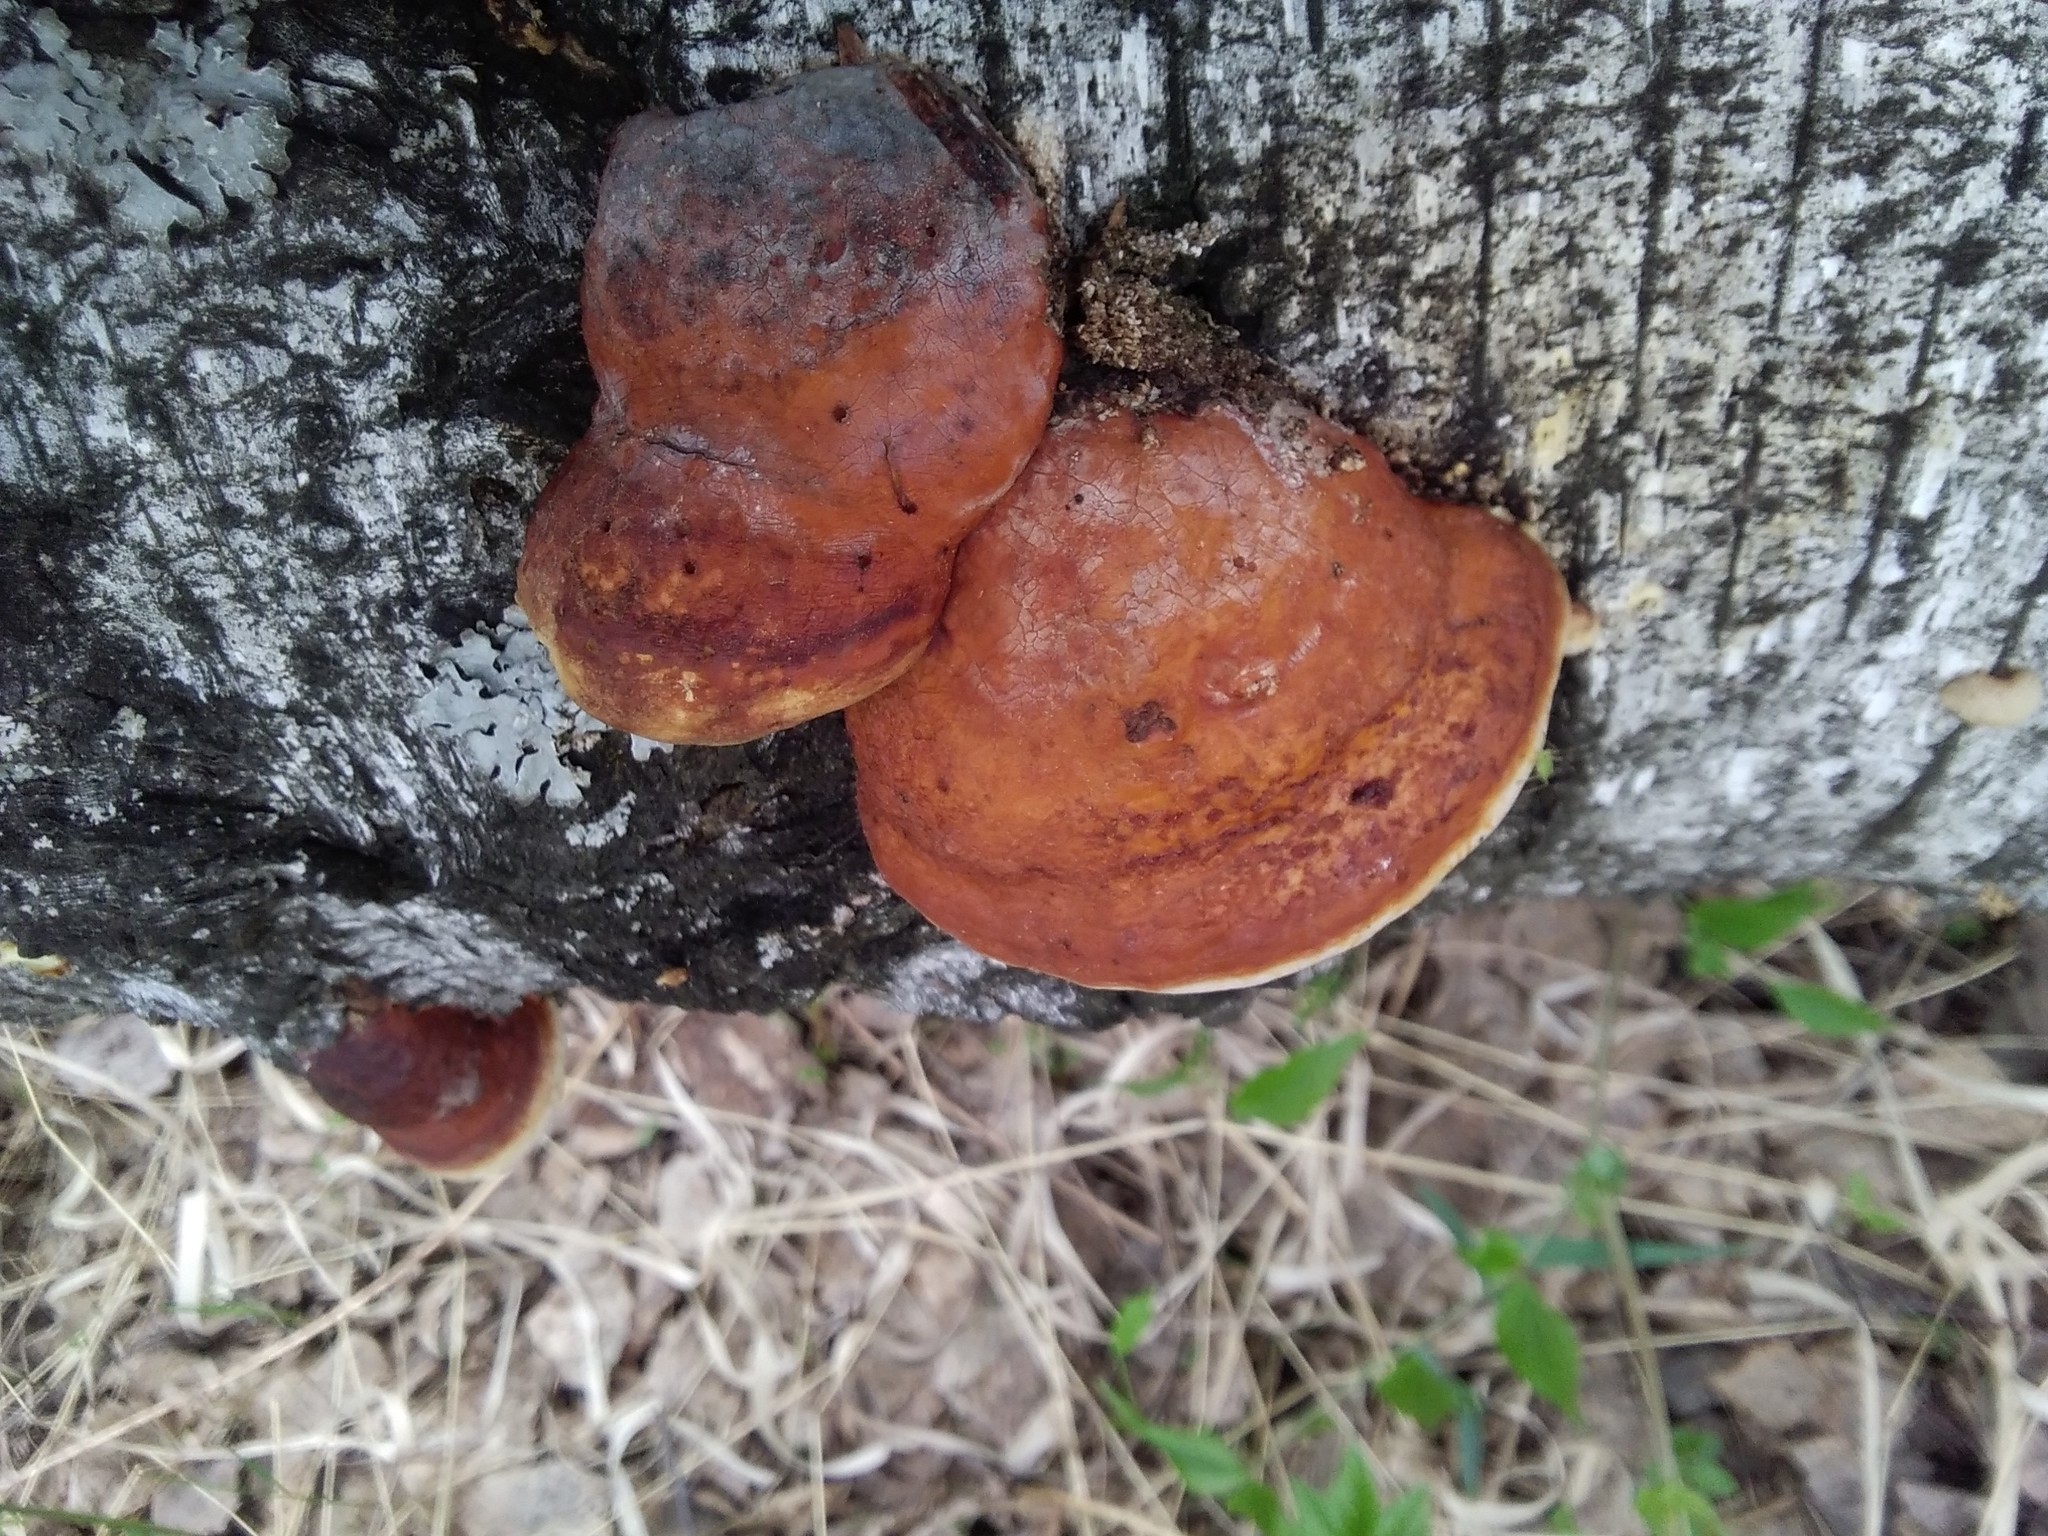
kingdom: Fungi
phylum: Basidiomycota
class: Agaricomycetes
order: Polyporales
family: Fomitopsidaceae
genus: Fomitopsis
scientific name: Fomitopsis pinicola
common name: Red-belted bracket
